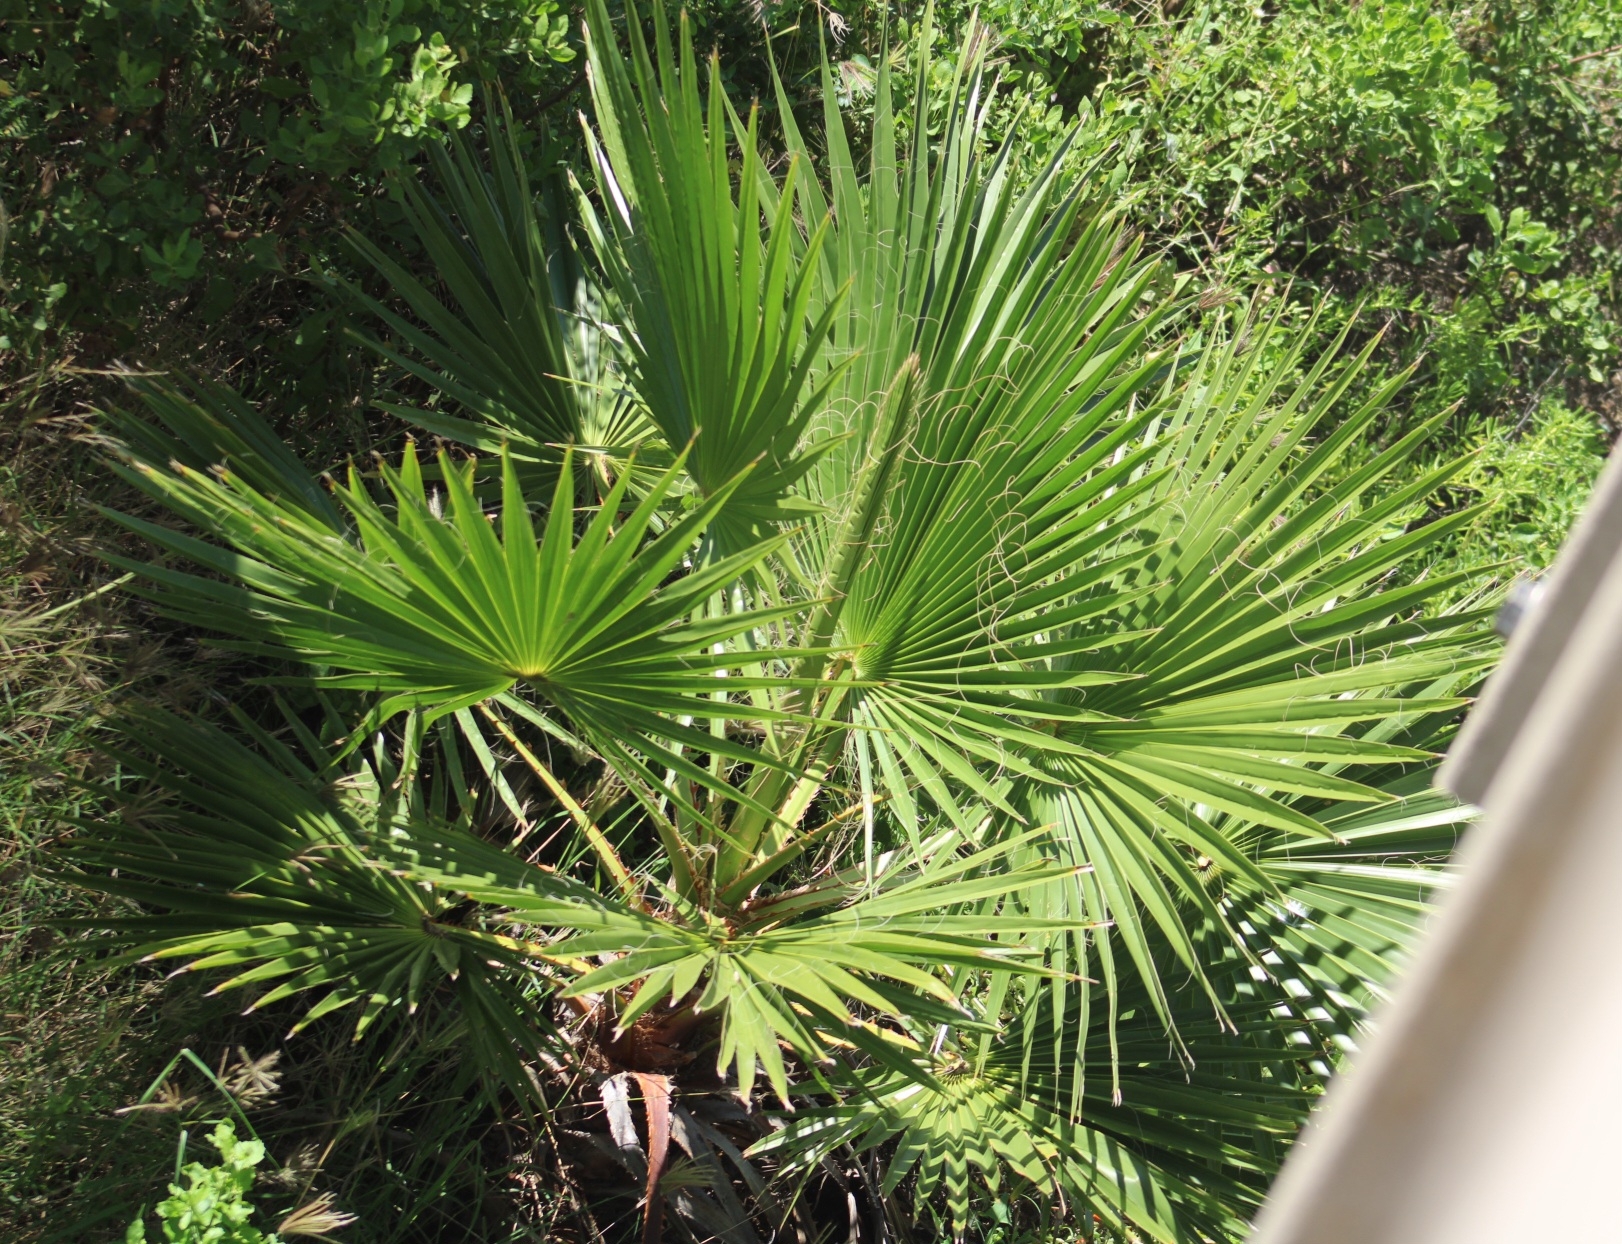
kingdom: Plantae
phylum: Tracheophyta
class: Liliopsida
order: Arecales
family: Arecaceae
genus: Washingtonia
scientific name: Washingtonia robusta
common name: Mexican fan palm
